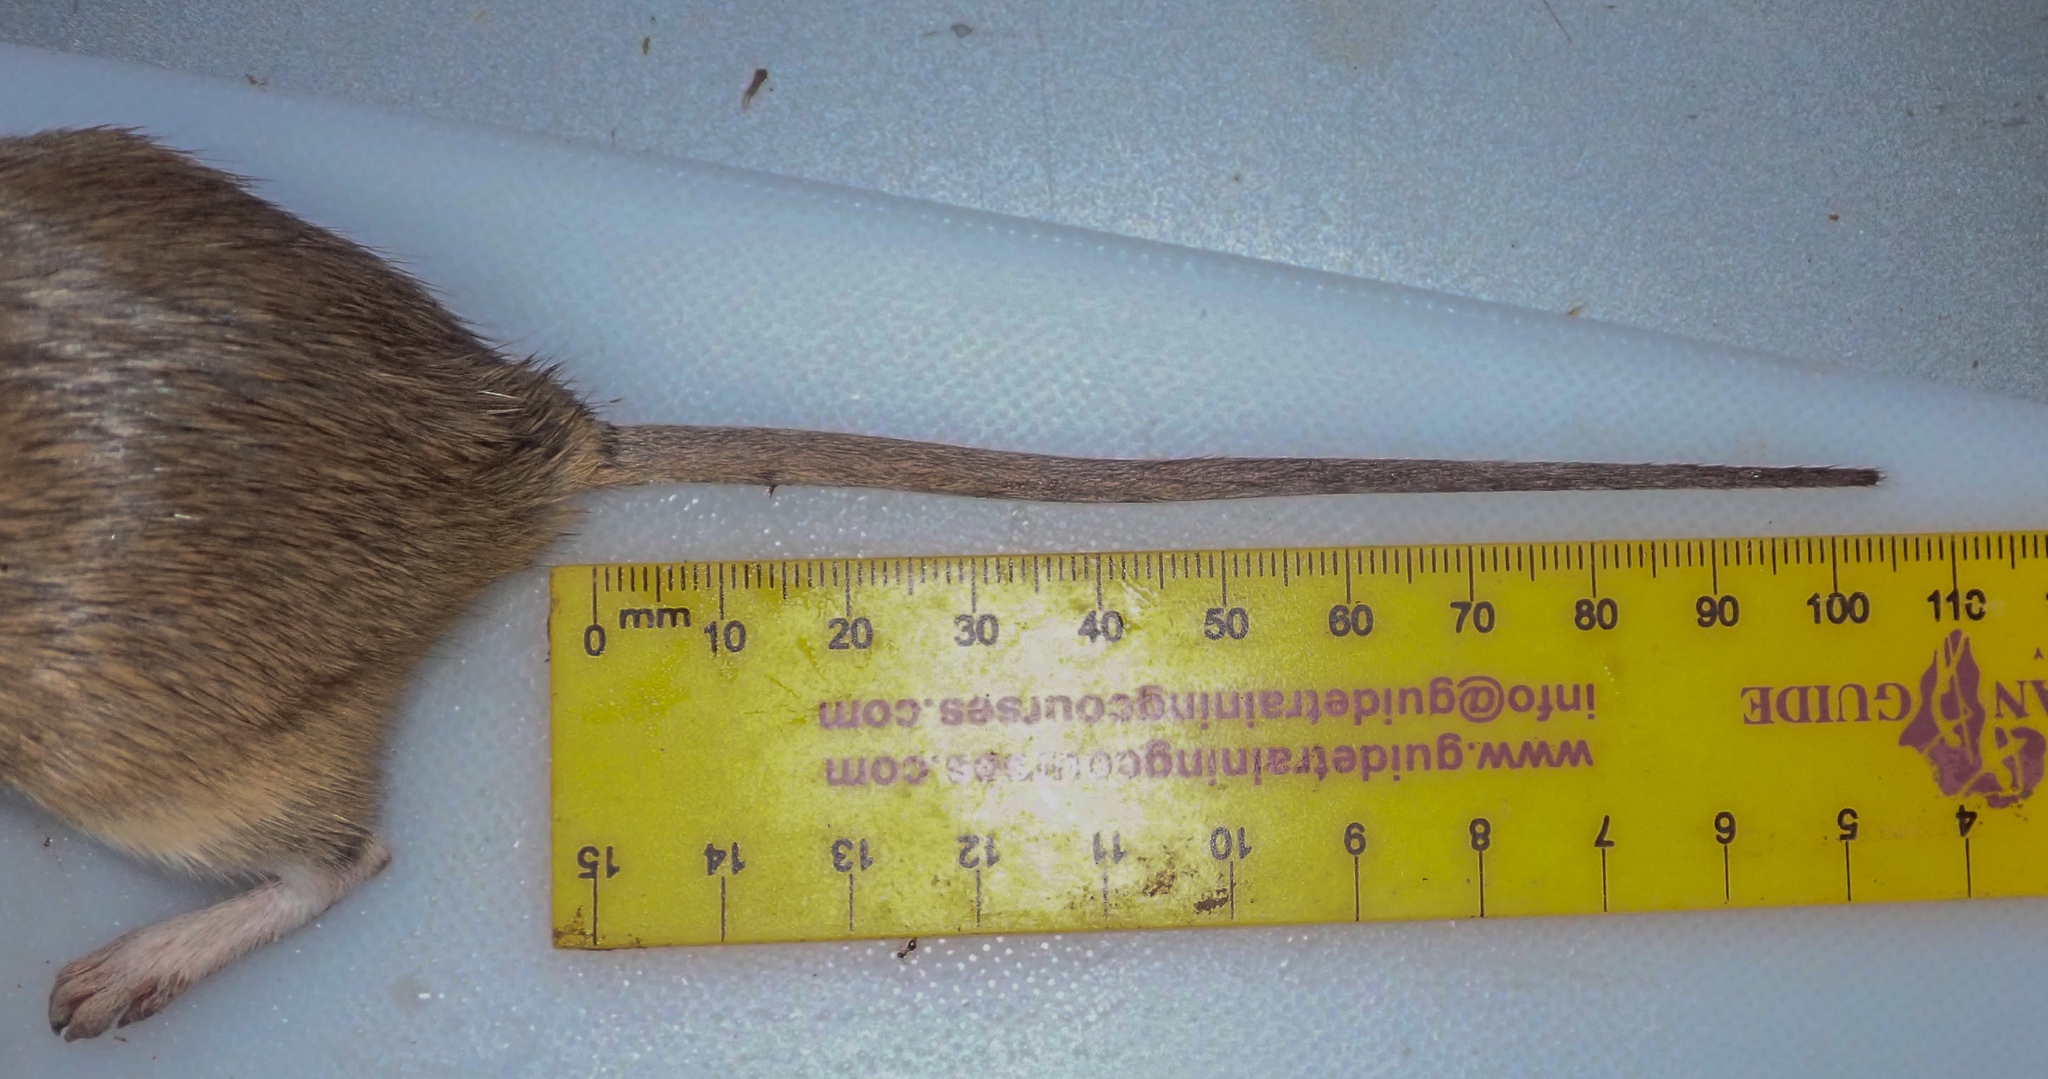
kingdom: Animalia
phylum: Chordata
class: Mammalia
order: Rodentia
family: Muridae
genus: Gerbilliscus
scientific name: Gerbilliscus leucogaster
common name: Bushveld gerbil
